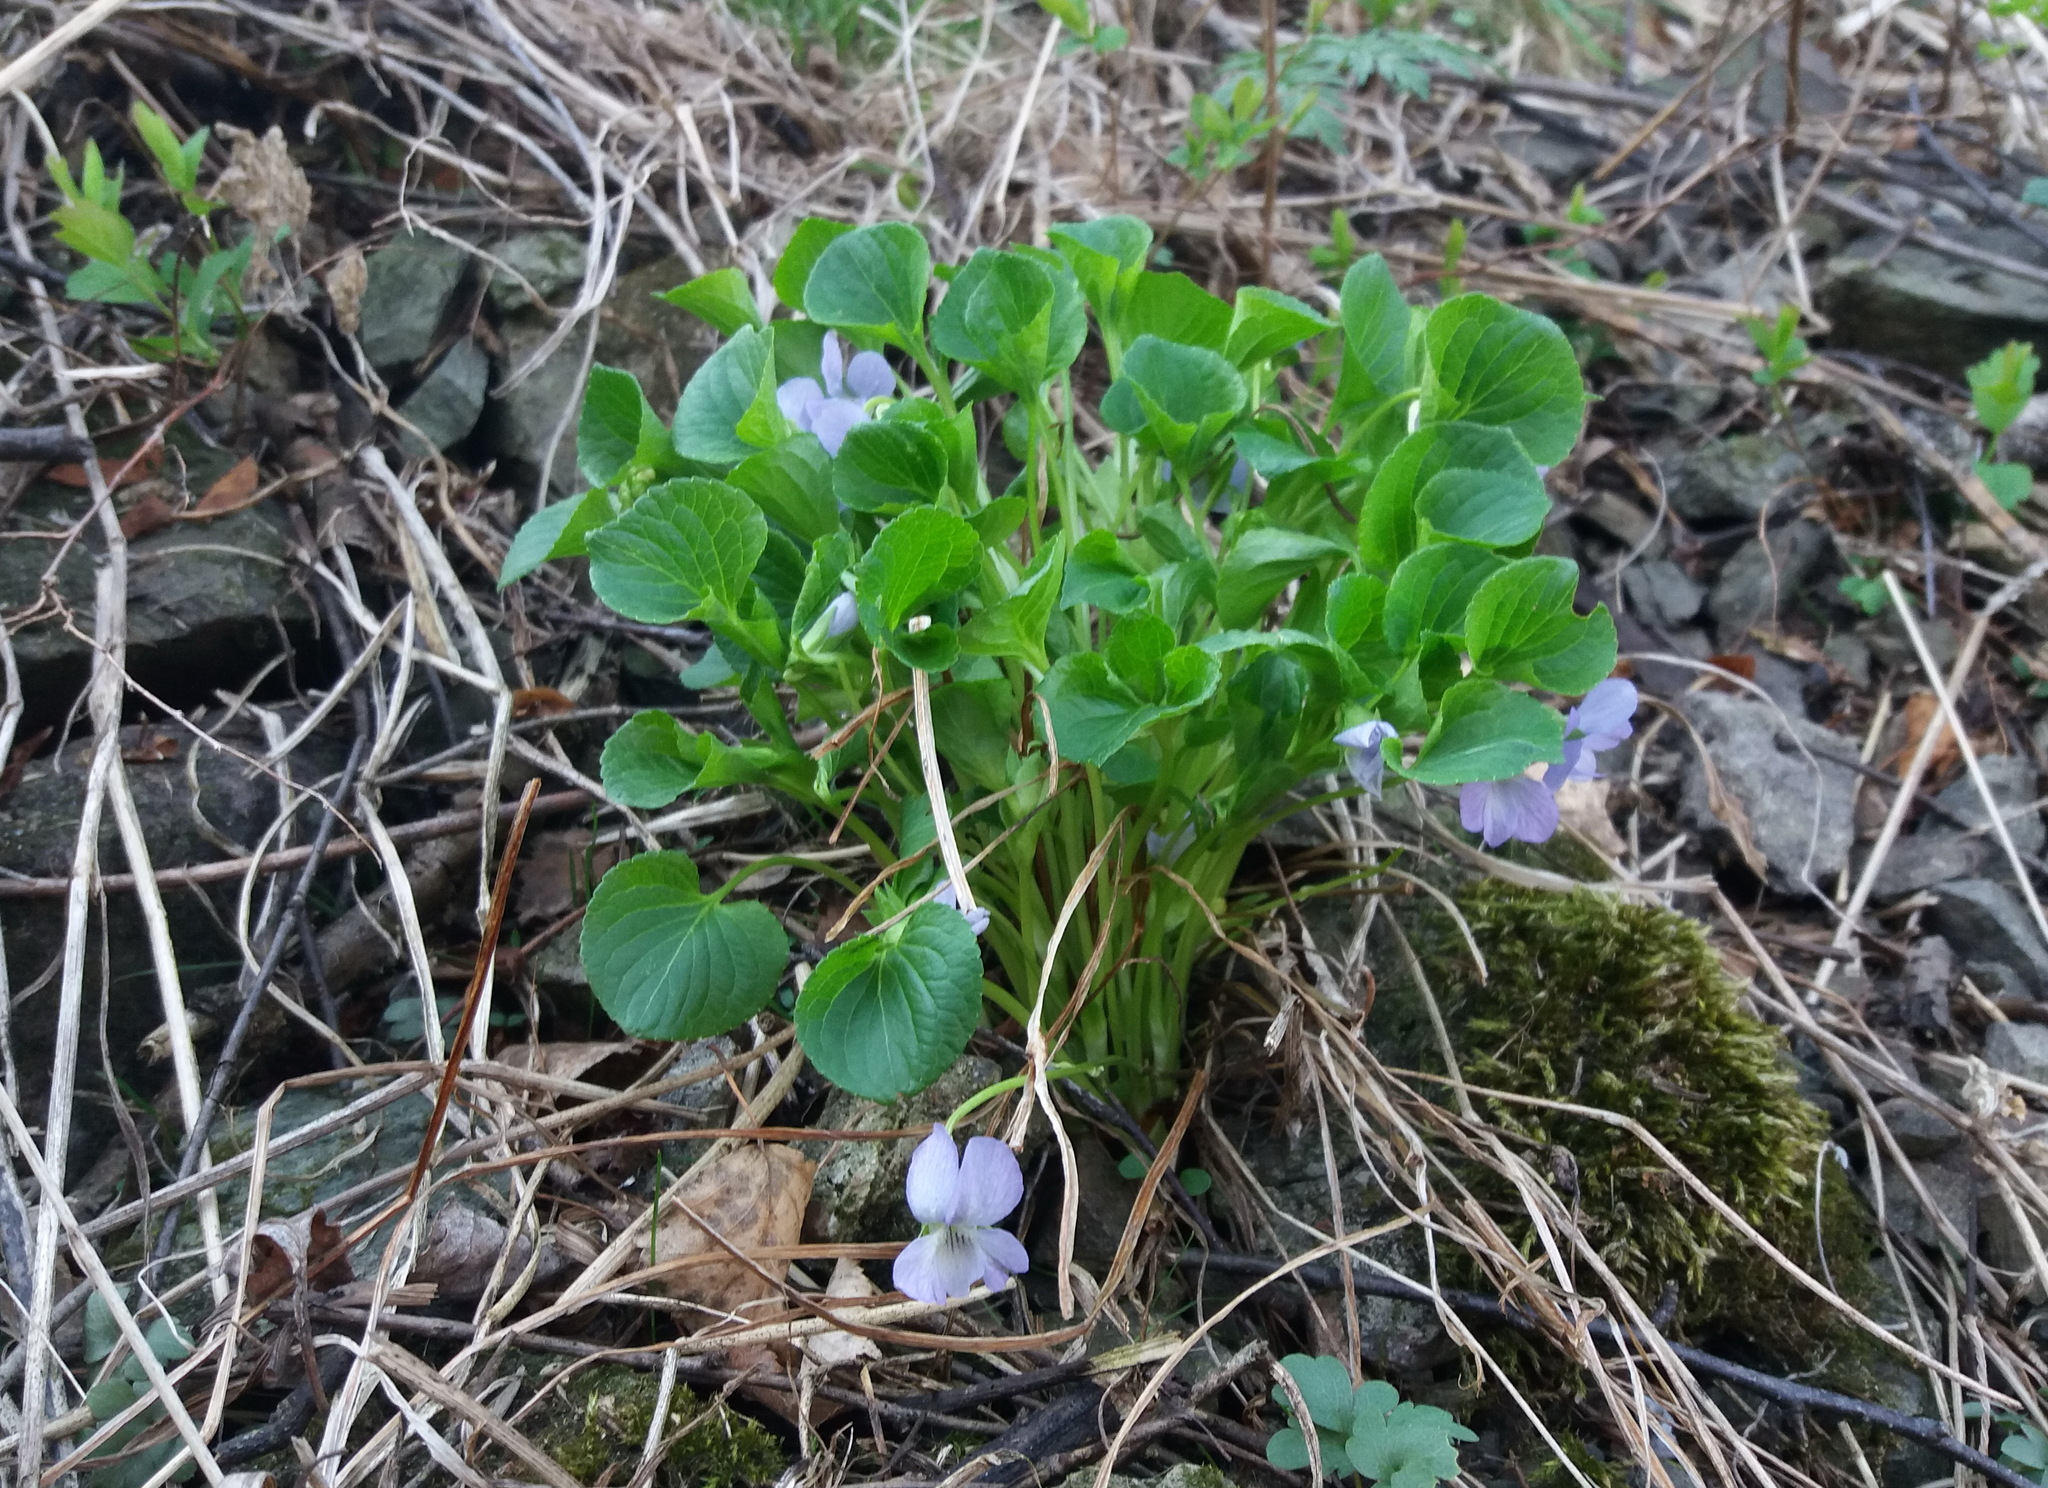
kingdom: Plantae
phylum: Tracheophyta
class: Magnoliopsida
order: Malpighiales
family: Violaceae
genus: Viola
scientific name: Viola mirabilis
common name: Wonder violet
